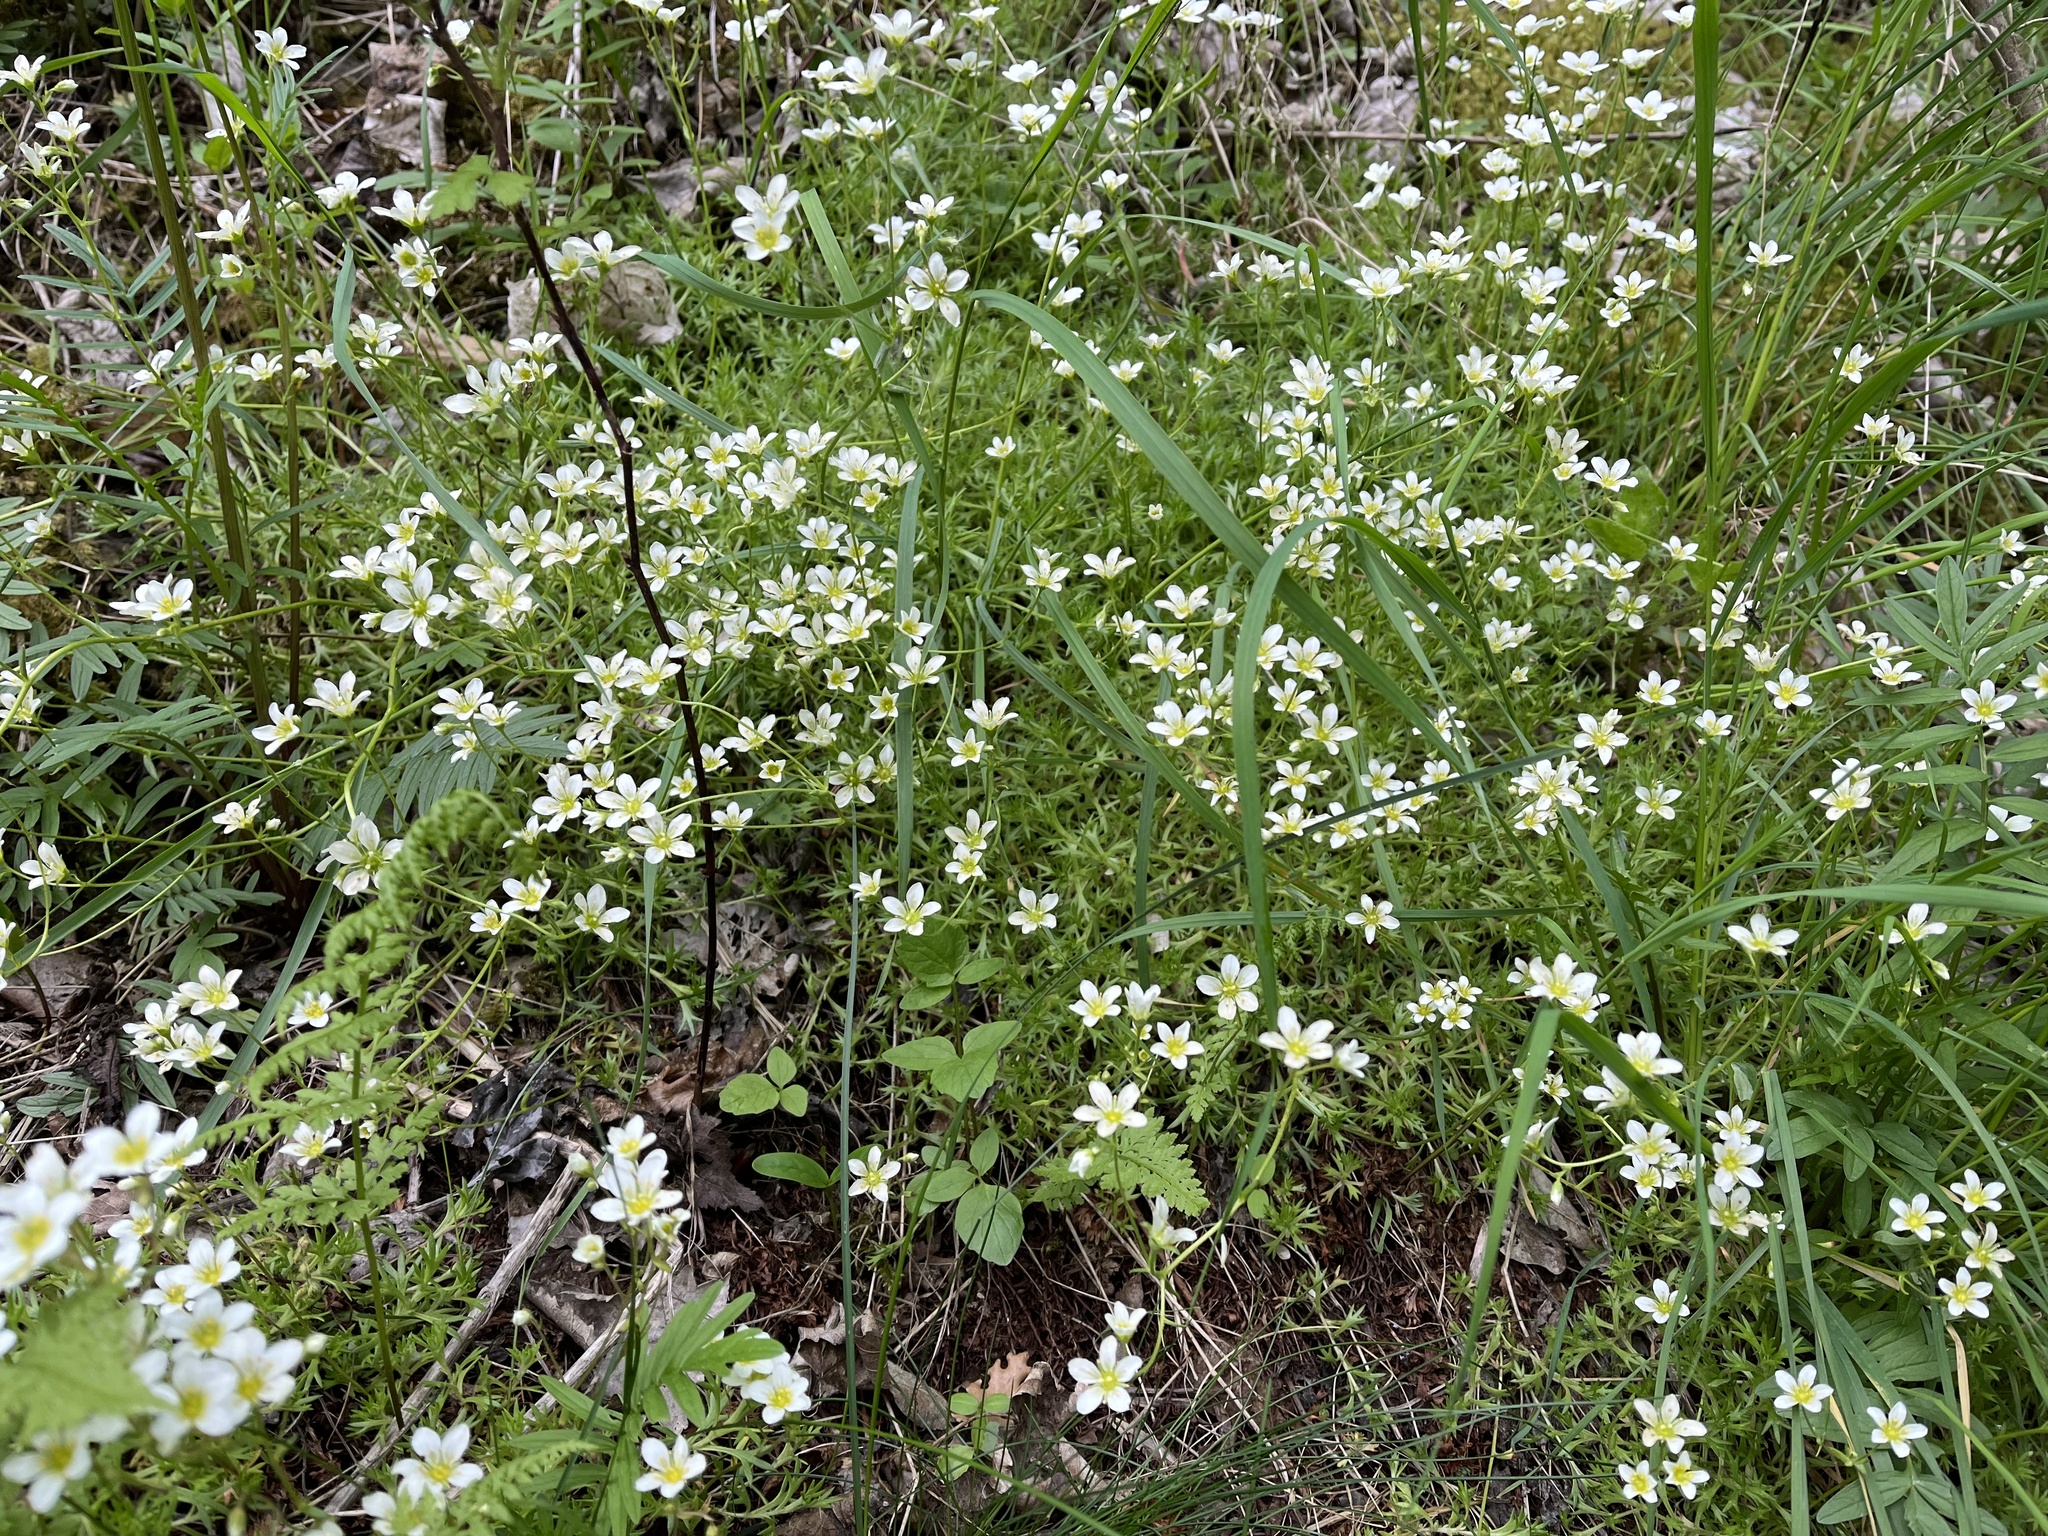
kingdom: Plantae
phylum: Tracheophyta
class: Magnoliopsida
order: Saxifragales
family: Saxifragaceae
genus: Saxifraga
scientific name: Saxifraga rosacea
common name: Irish saxifrage
